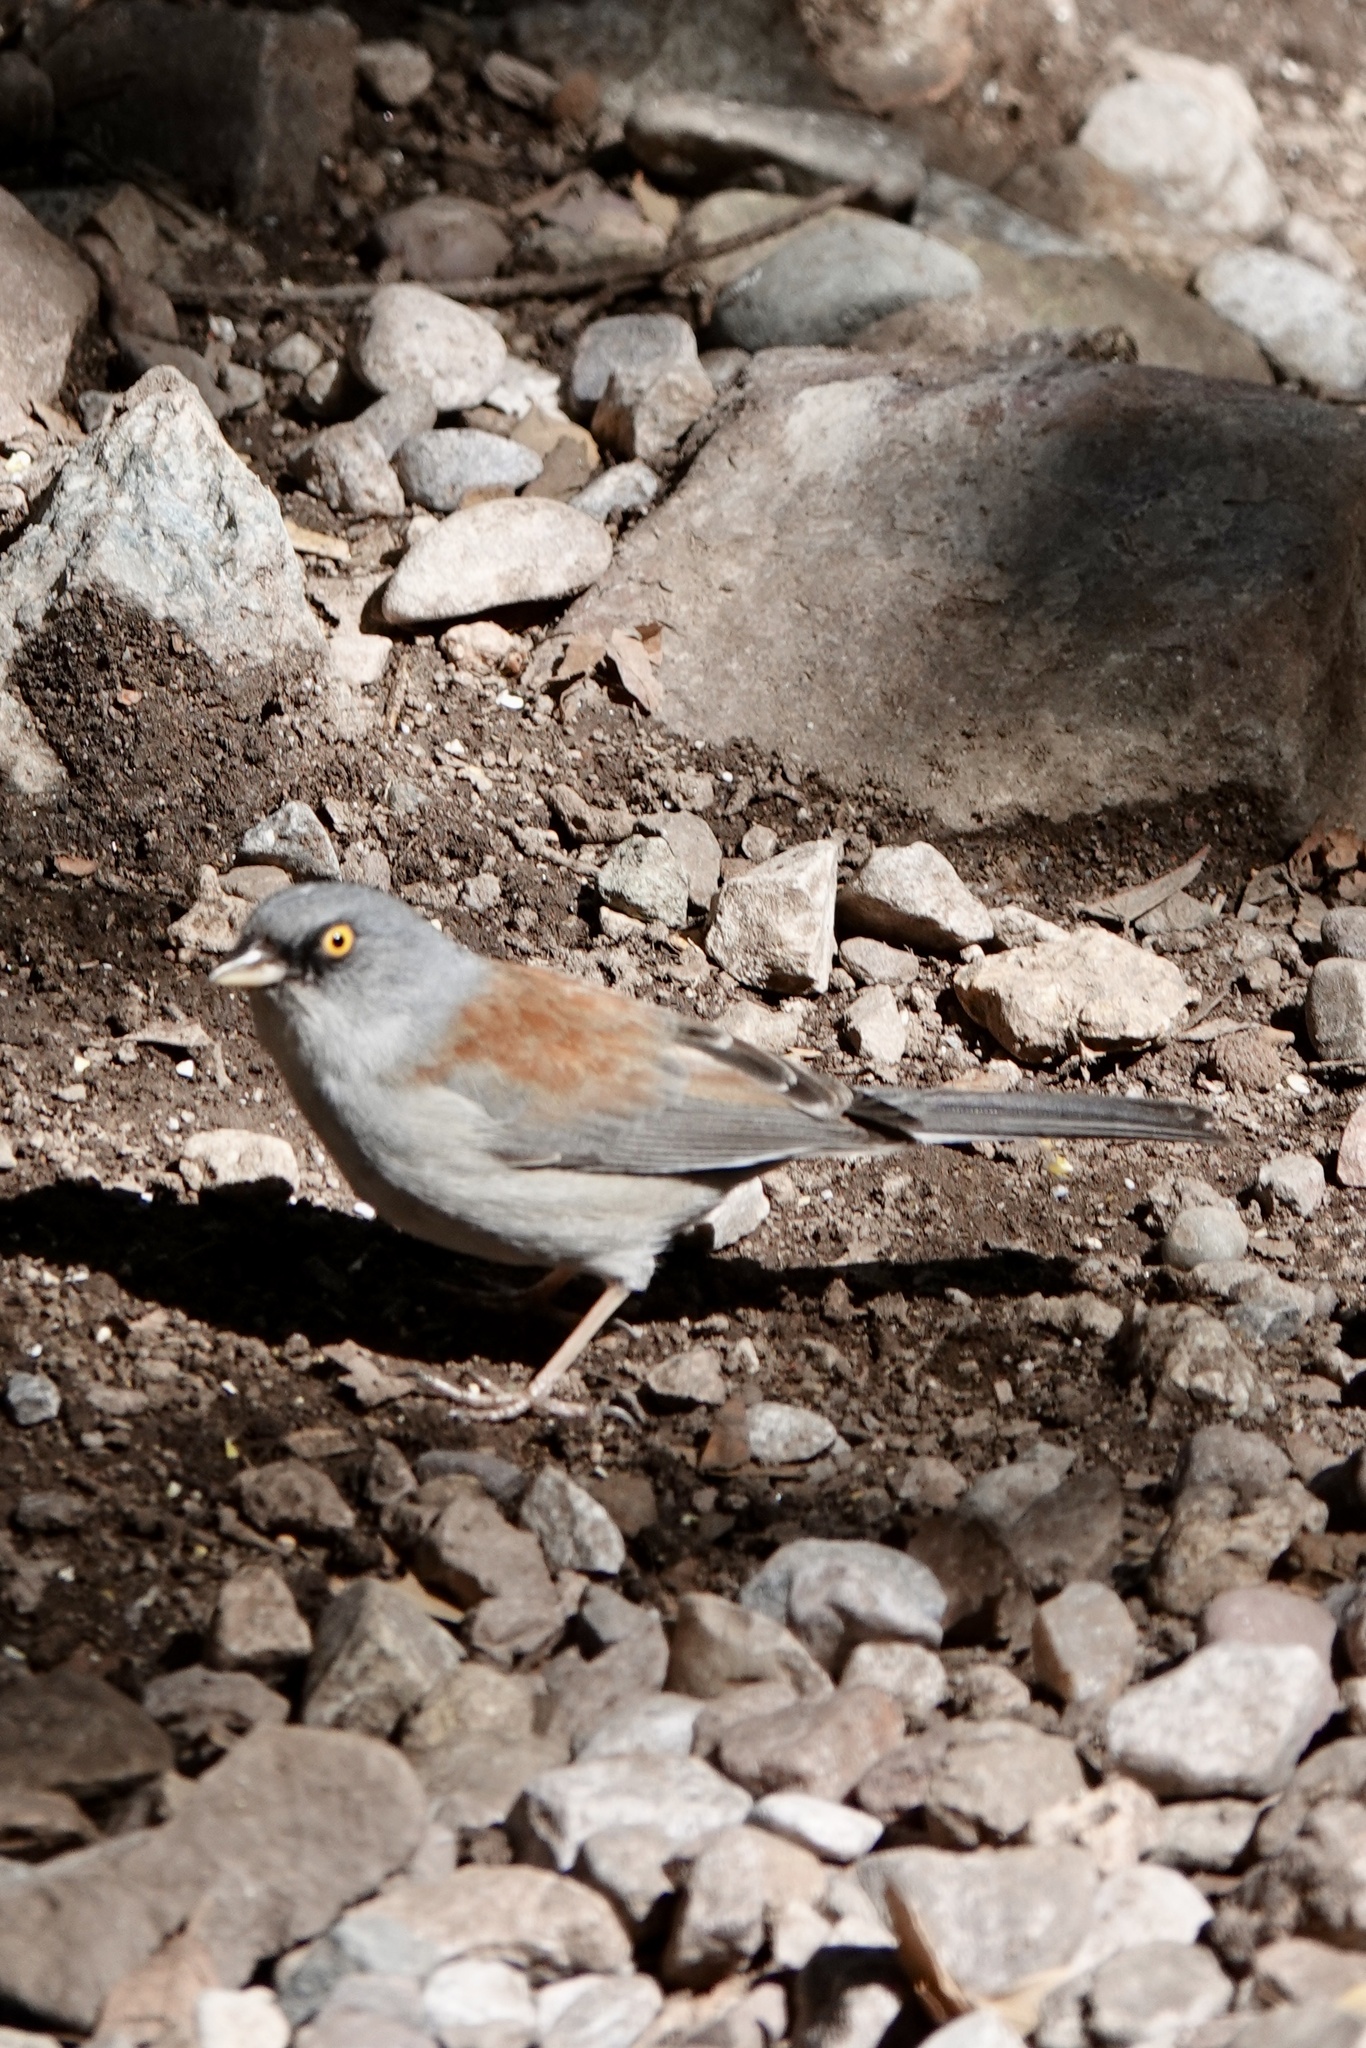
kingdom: Animalia
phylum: Chordata
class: Aves
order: Passeriformes
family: Passerellidae
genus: Junco
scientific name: Junco phaeonotus
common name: Yellow-eyed junco
